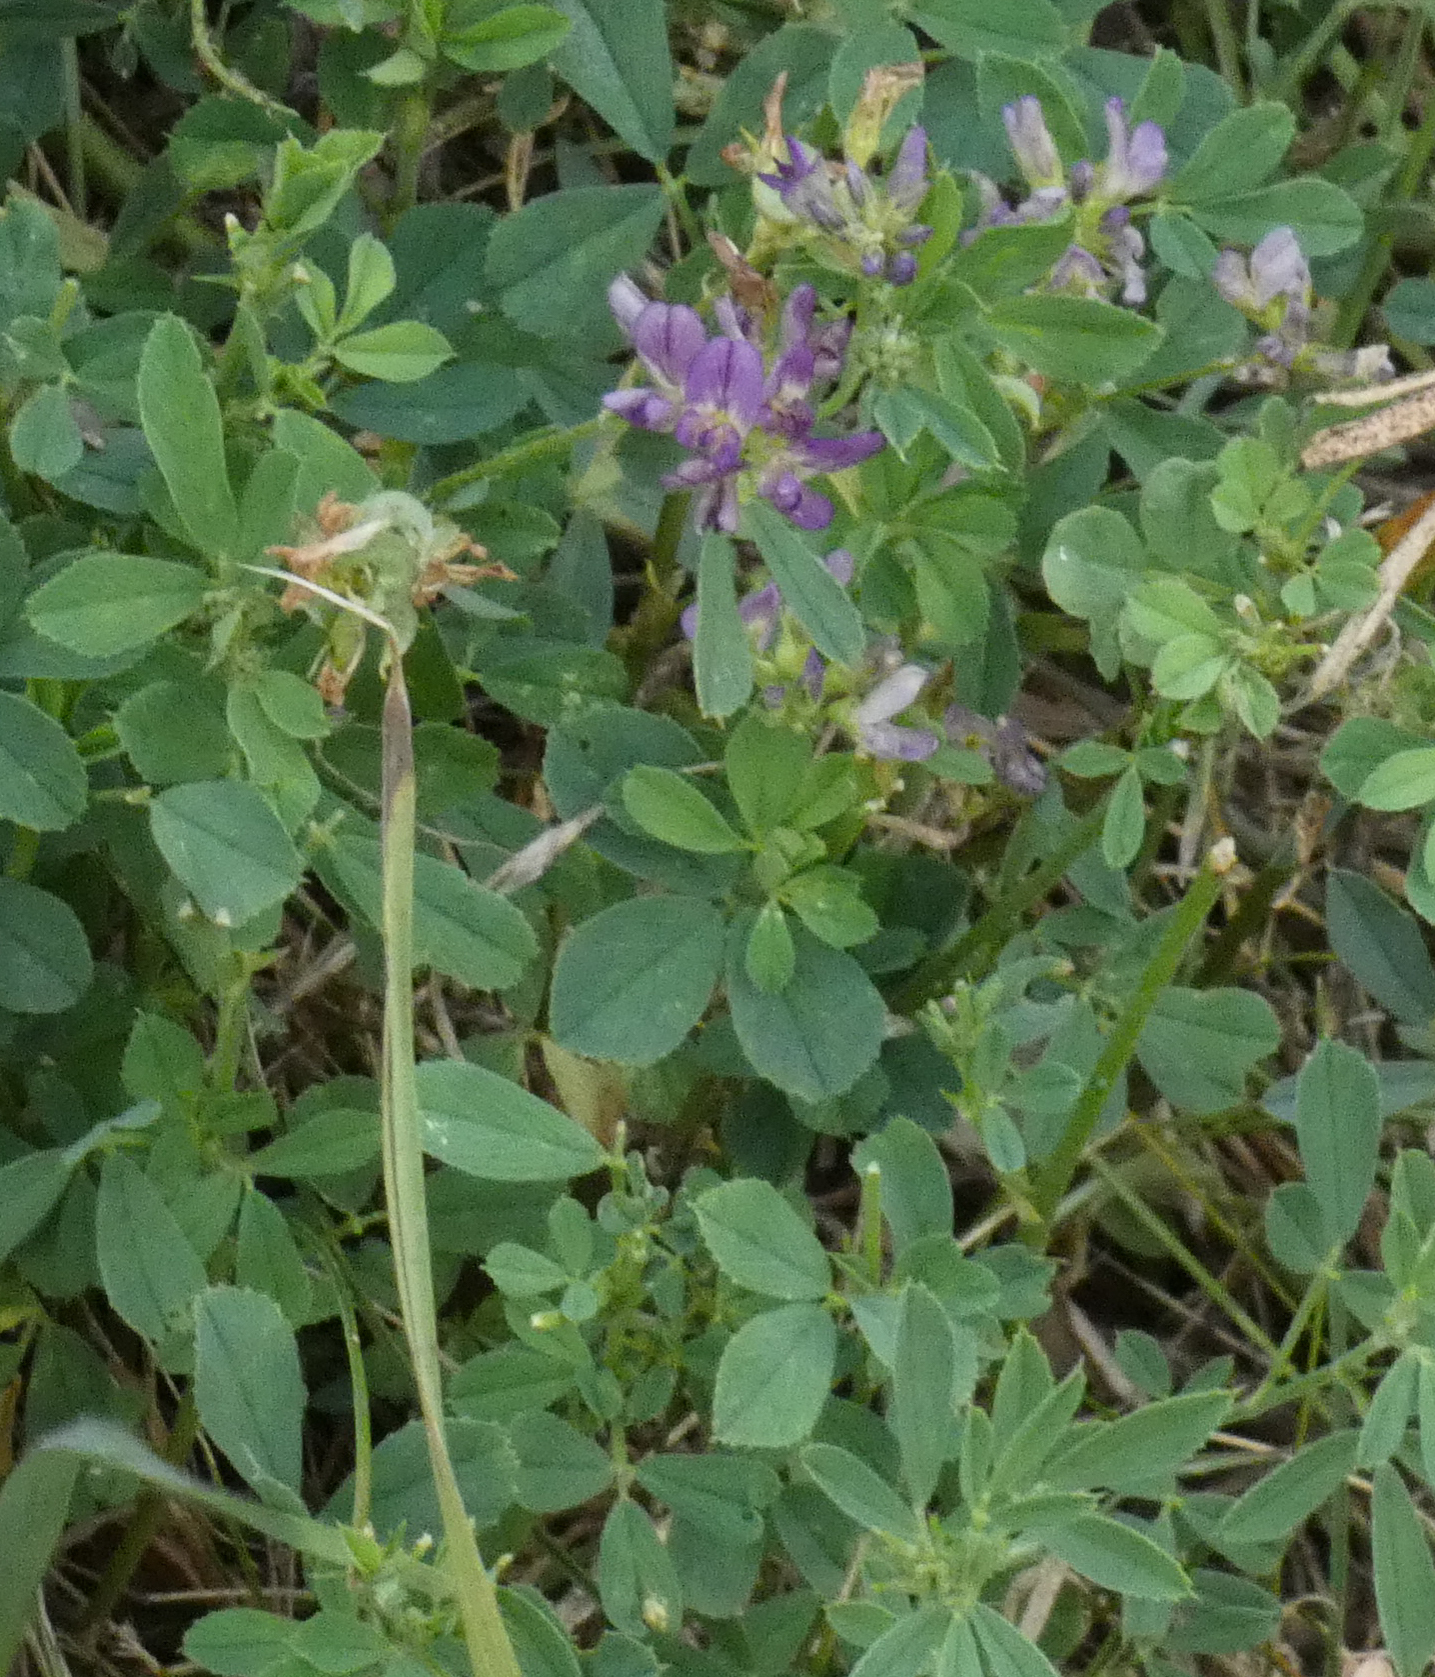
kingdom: Plantae
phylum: Tracheophyta
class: Magnoliopsida
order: Fabales
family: Fabaceae
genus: Medicago
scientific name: Medicago sativa
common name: Alfalfa
